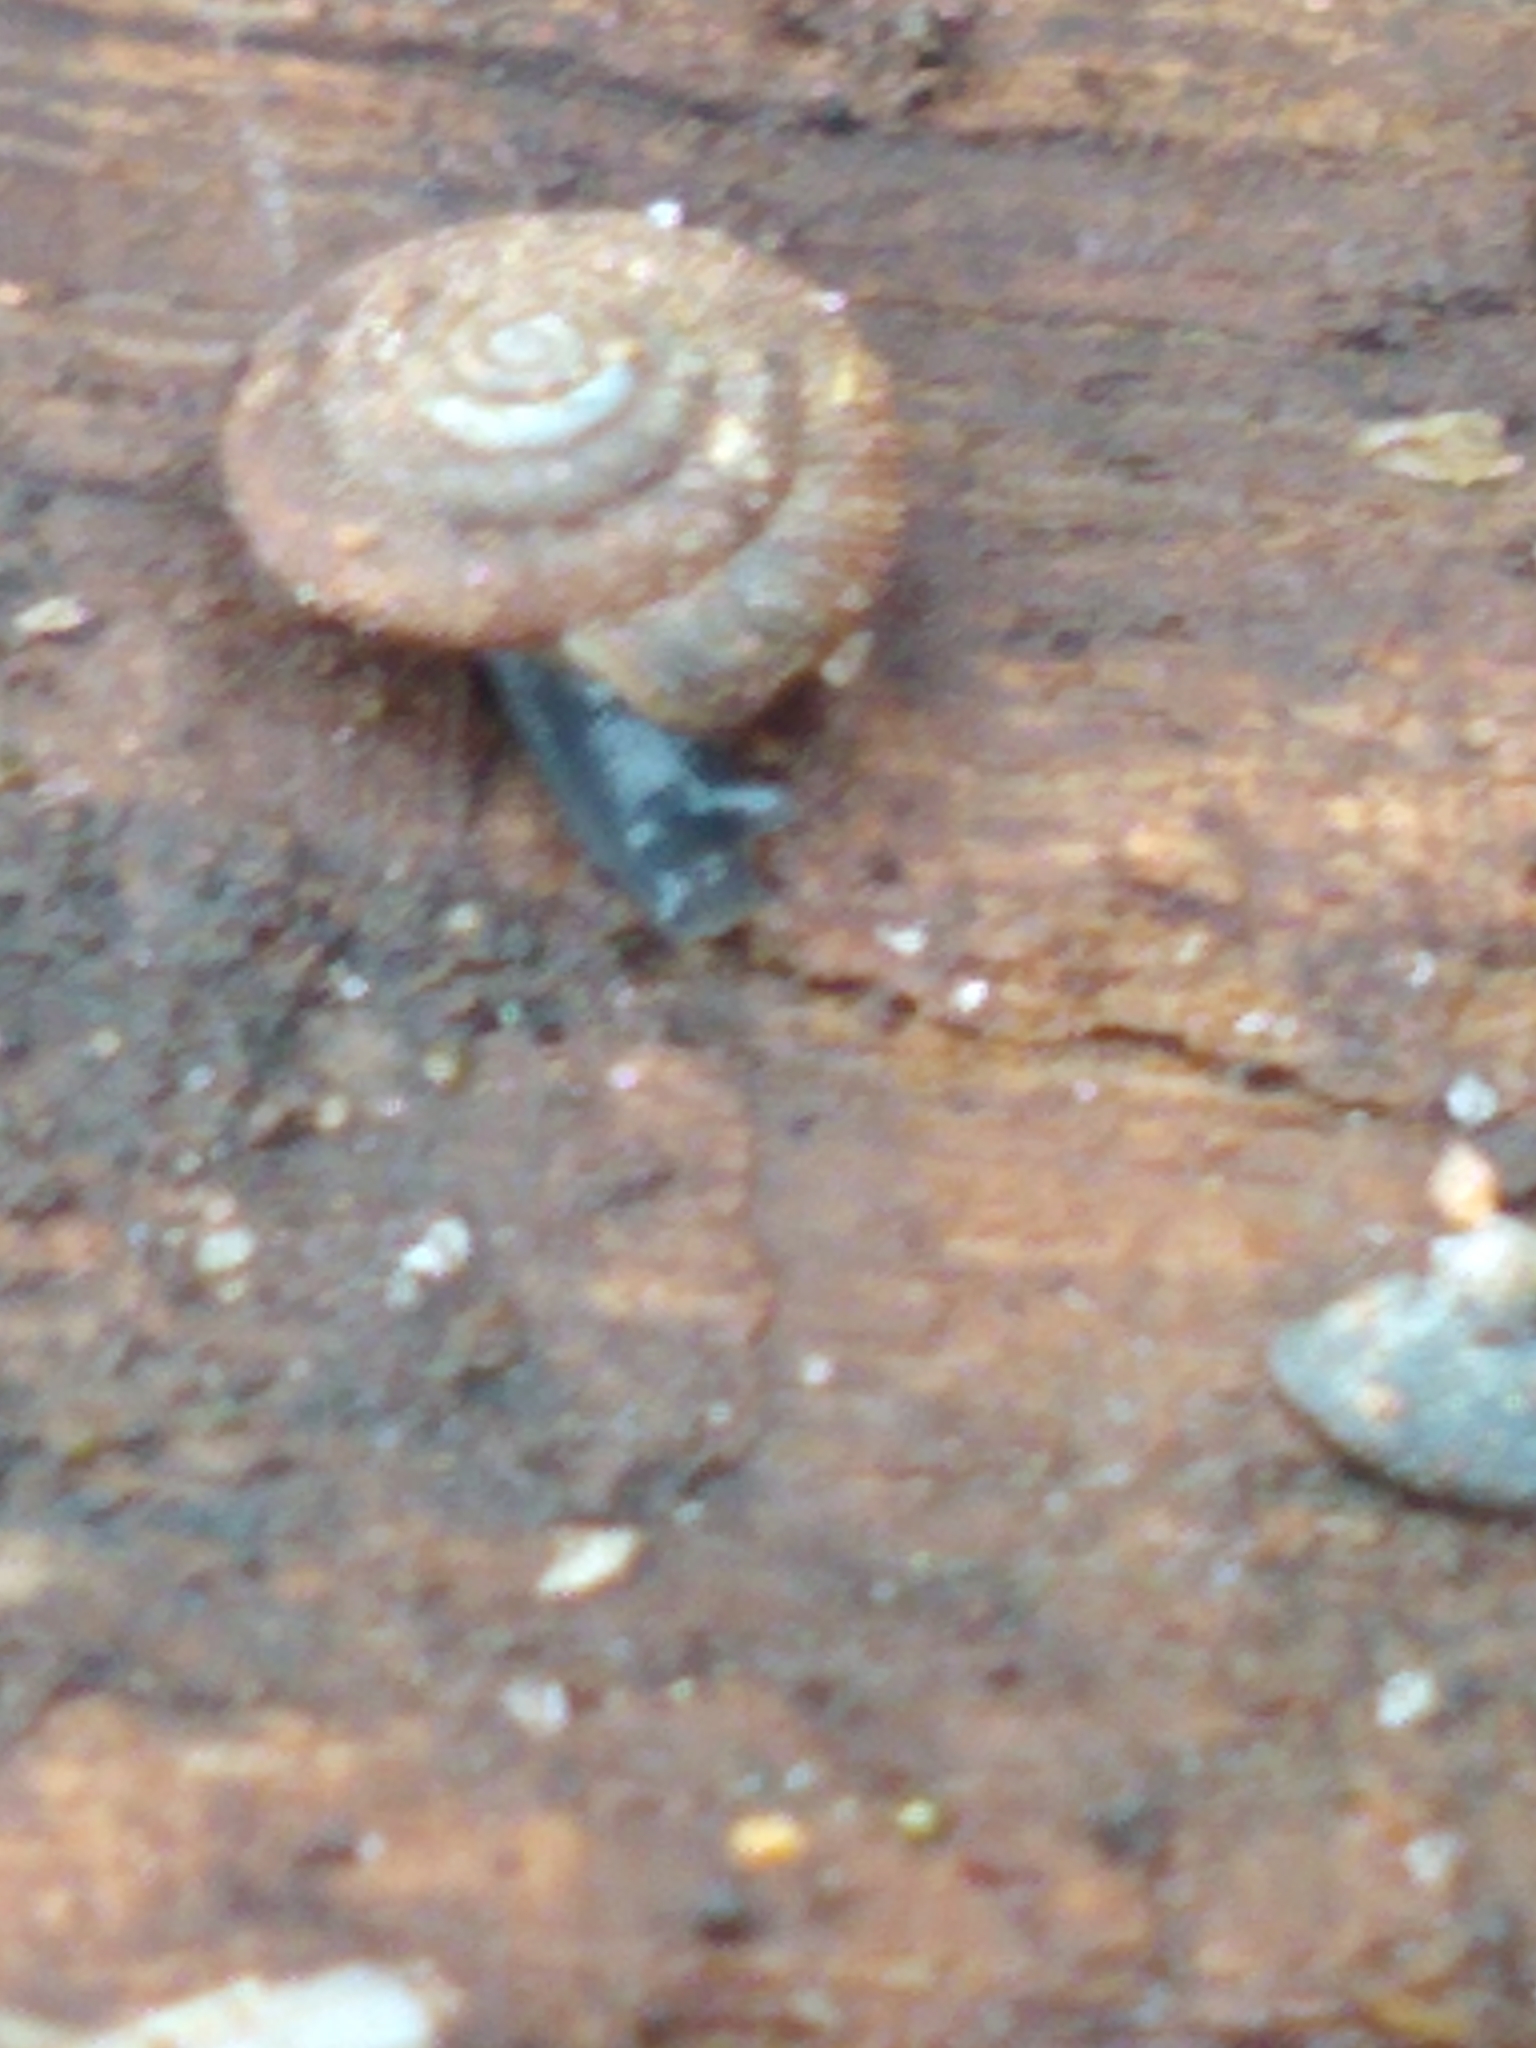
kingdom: Animalia
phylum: Mollusca
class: Gastropoda
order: Stylommatophora
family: Discidae
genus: Discus
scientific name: Discus rotundatus
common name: Rounded snail
